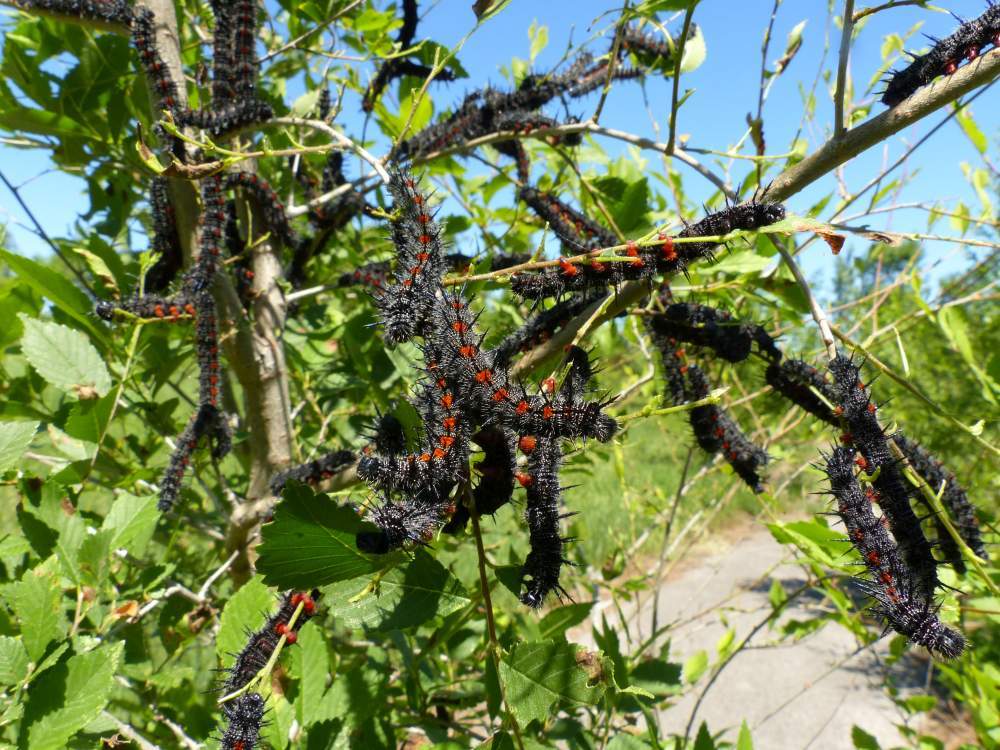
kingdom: Animalia
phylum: Arthropoda
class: Insecta
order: Lepidoptera
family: Nymphalidae
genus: Nymphalis
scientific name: Nymphalis antiopa
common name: Camberwell beauty
